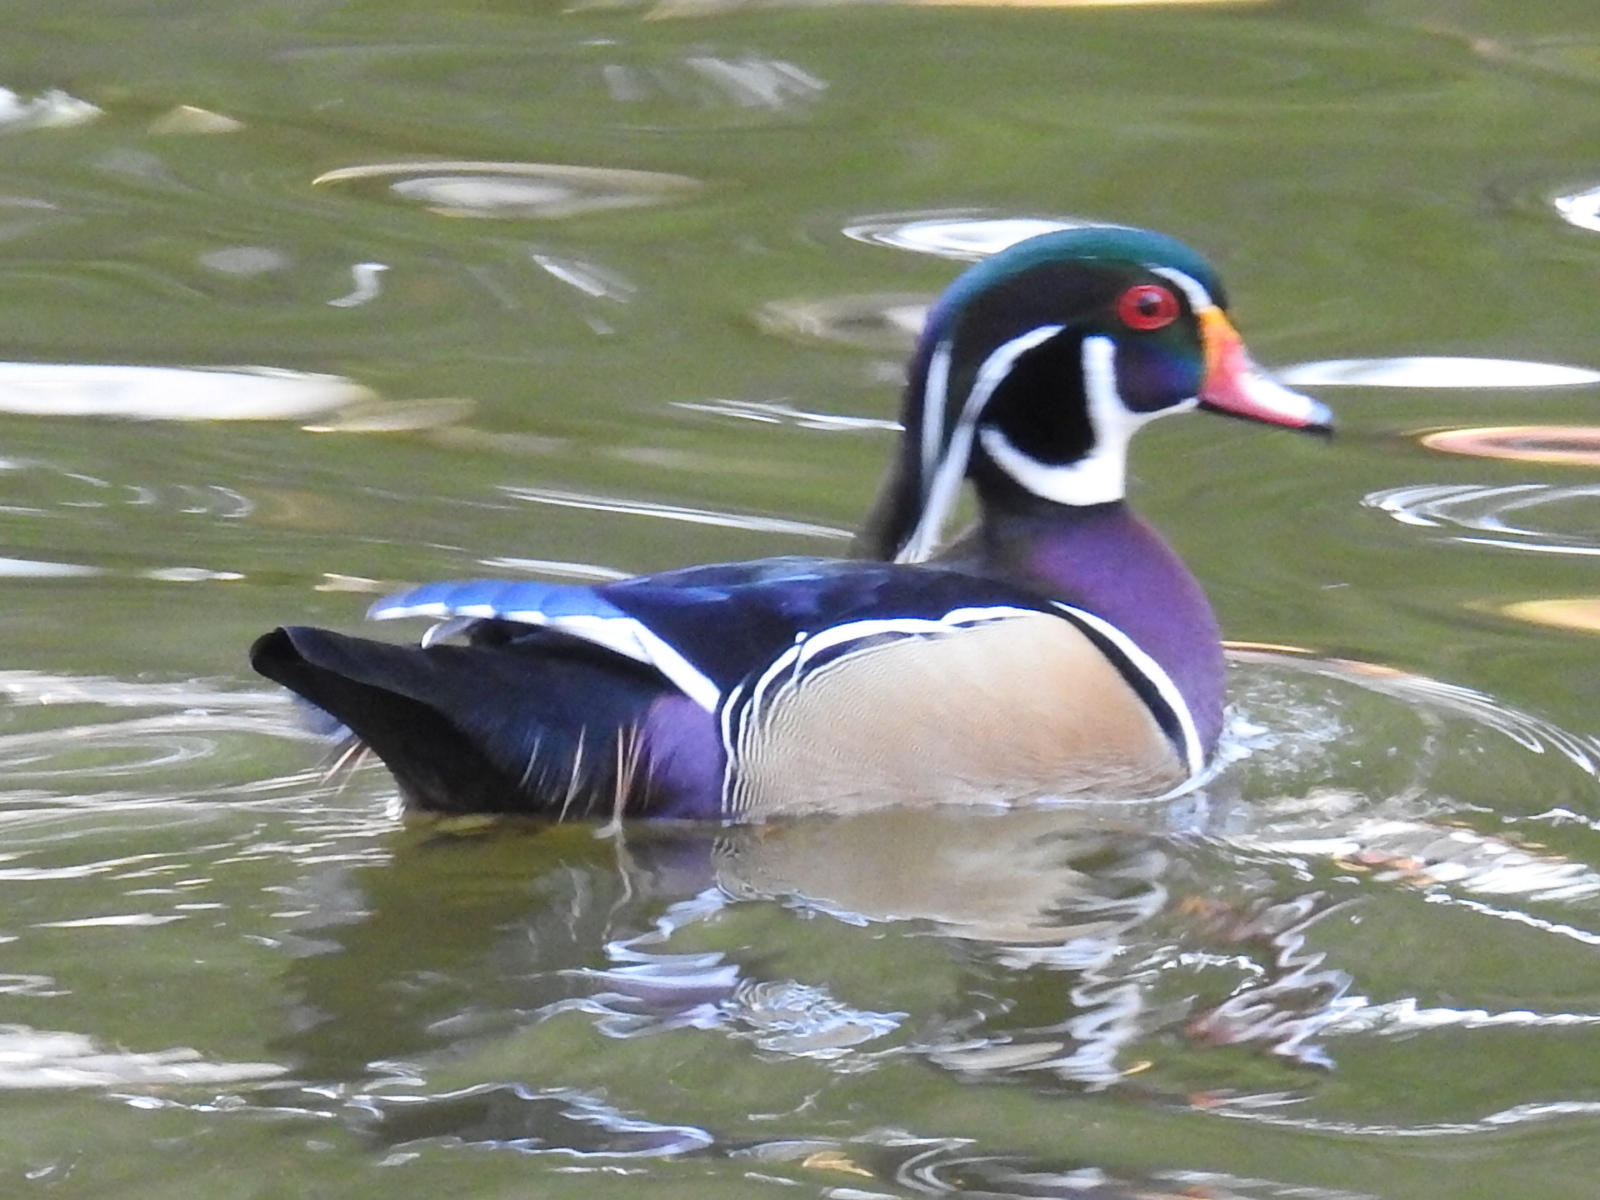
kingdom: Animalia
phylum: Chordata
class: Aves
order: Anseriformes
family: Anatidae
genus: Aix
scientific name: Aix sponsa
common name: Wood duck
